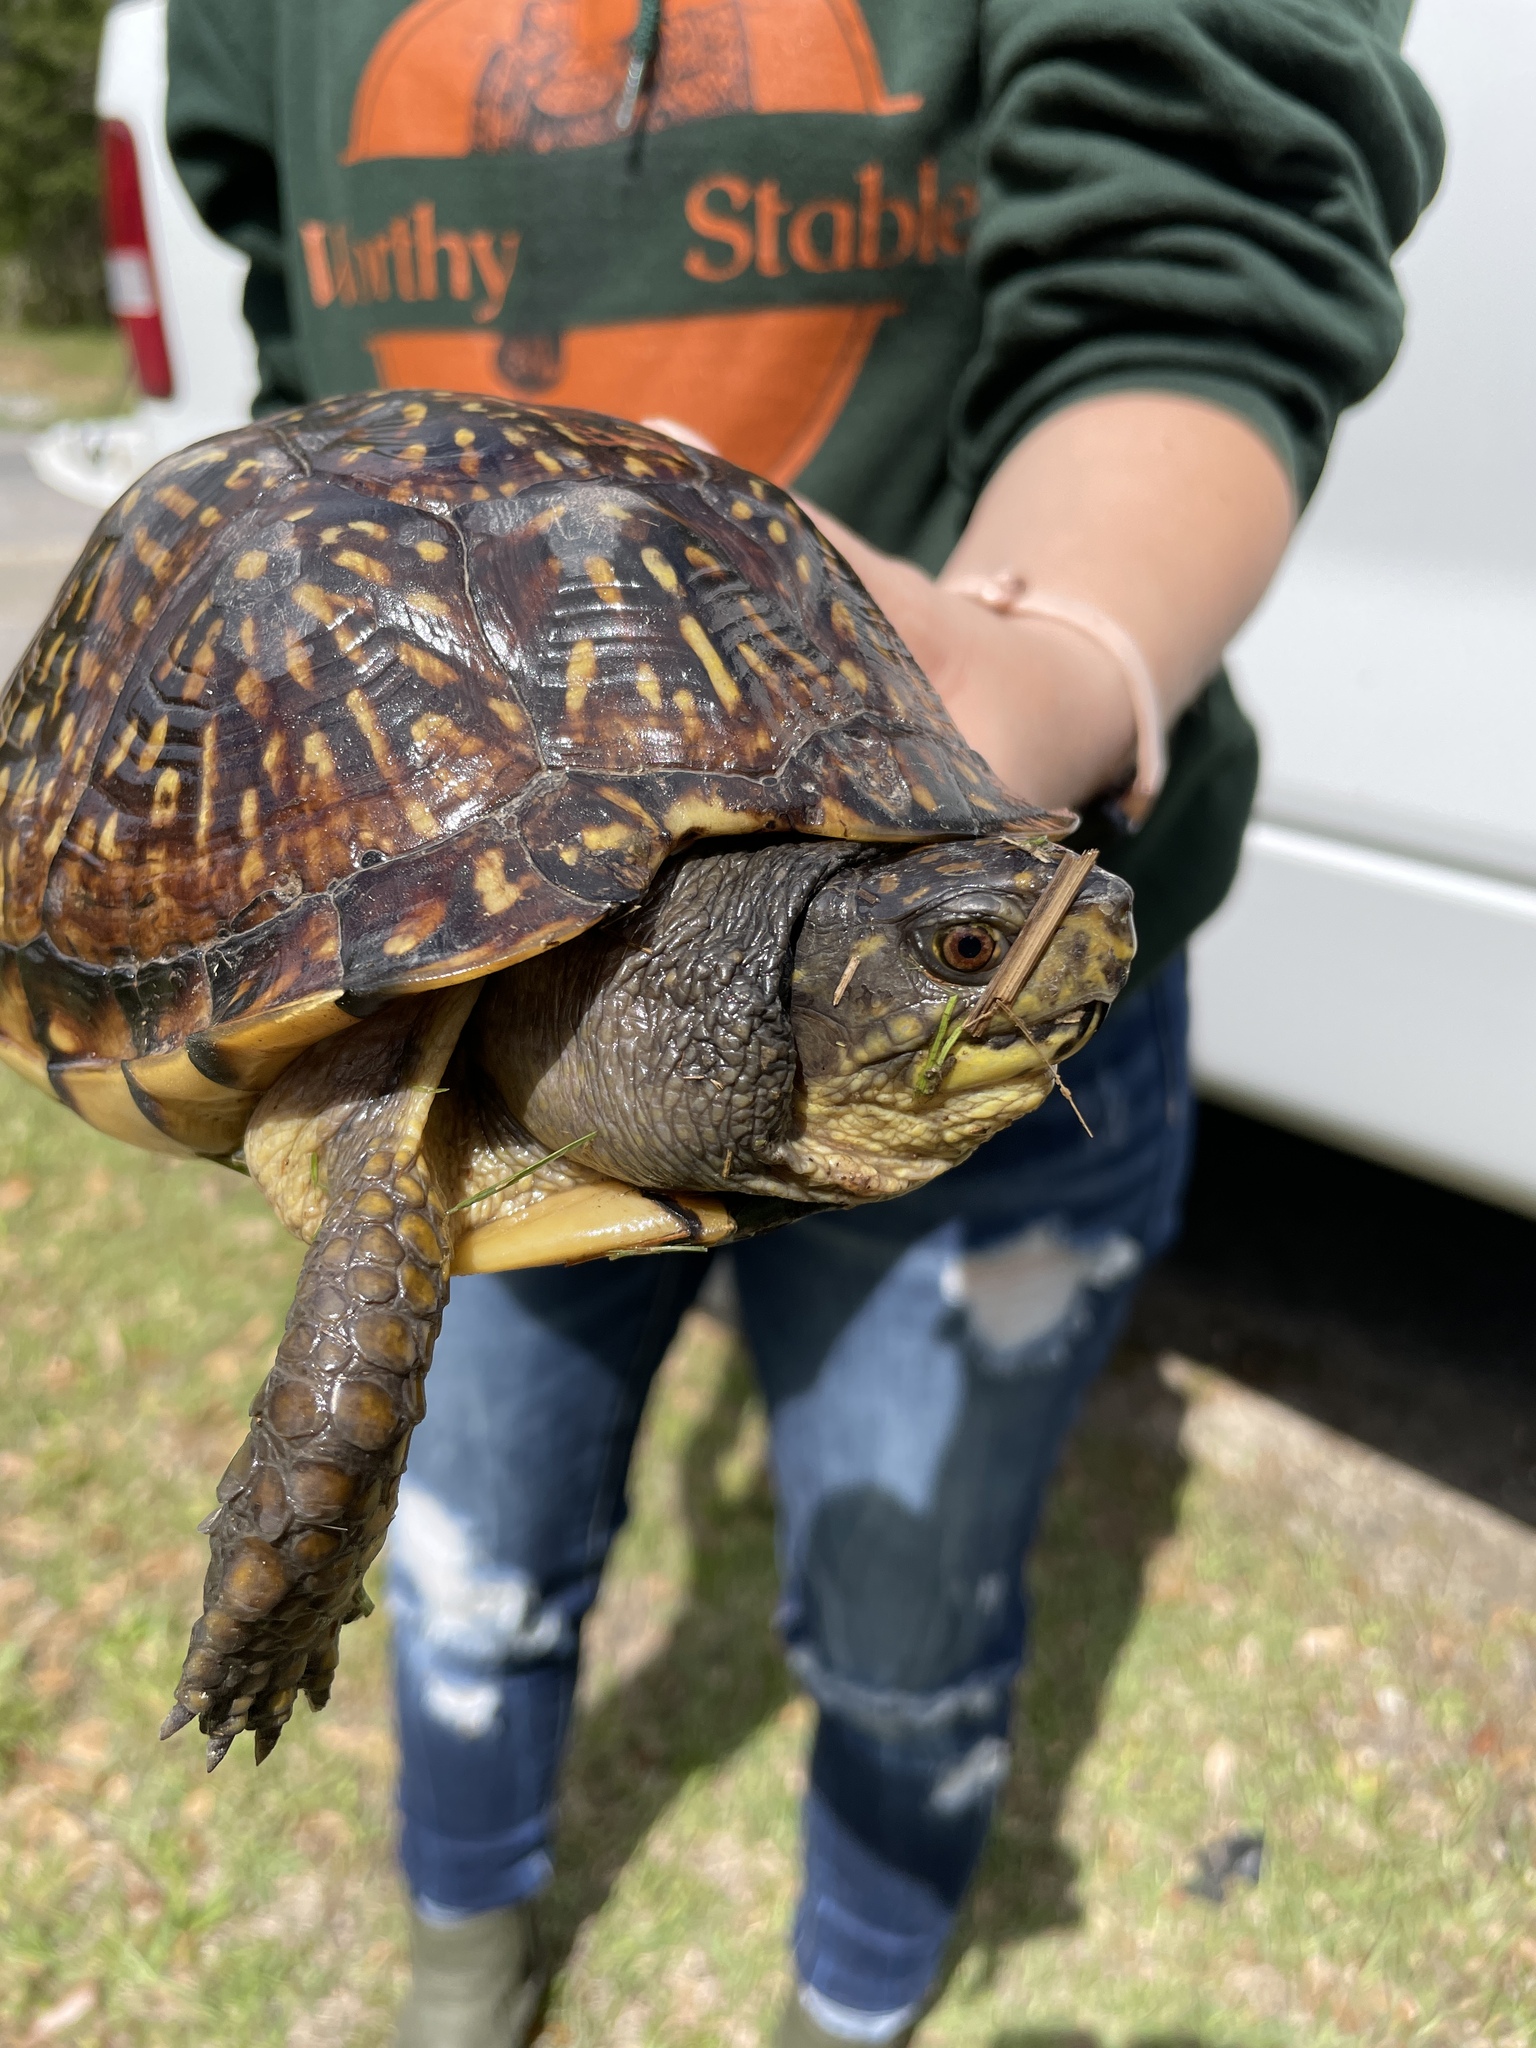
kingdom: Animalia
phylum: Chordata
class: Testudines
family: Emydidae
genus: Terrapene
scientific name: Terrapene carolina
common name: Common box turtle
